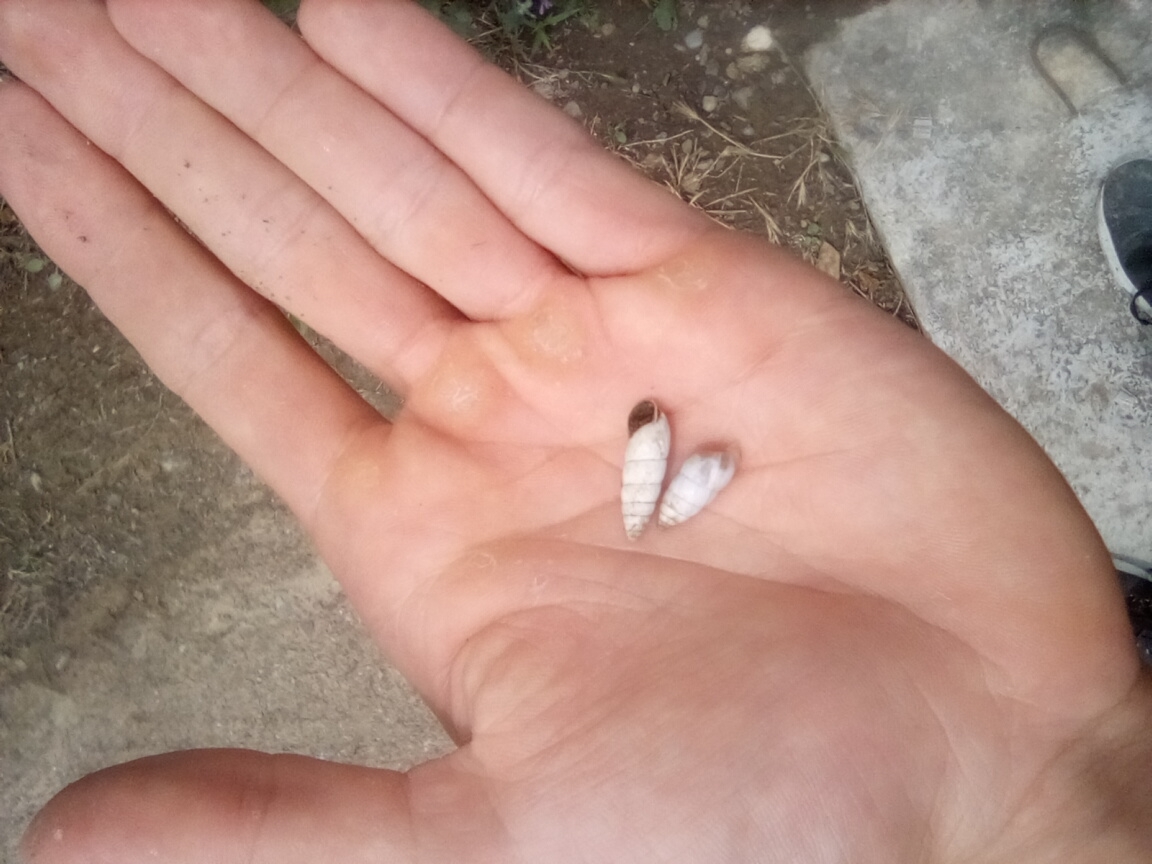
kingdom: Animalia
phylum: Mollusca
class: Gastropoda
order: Stylommatophora
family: Enidae
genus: Brephulopsis
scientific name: Brephulopsis cylindrica
